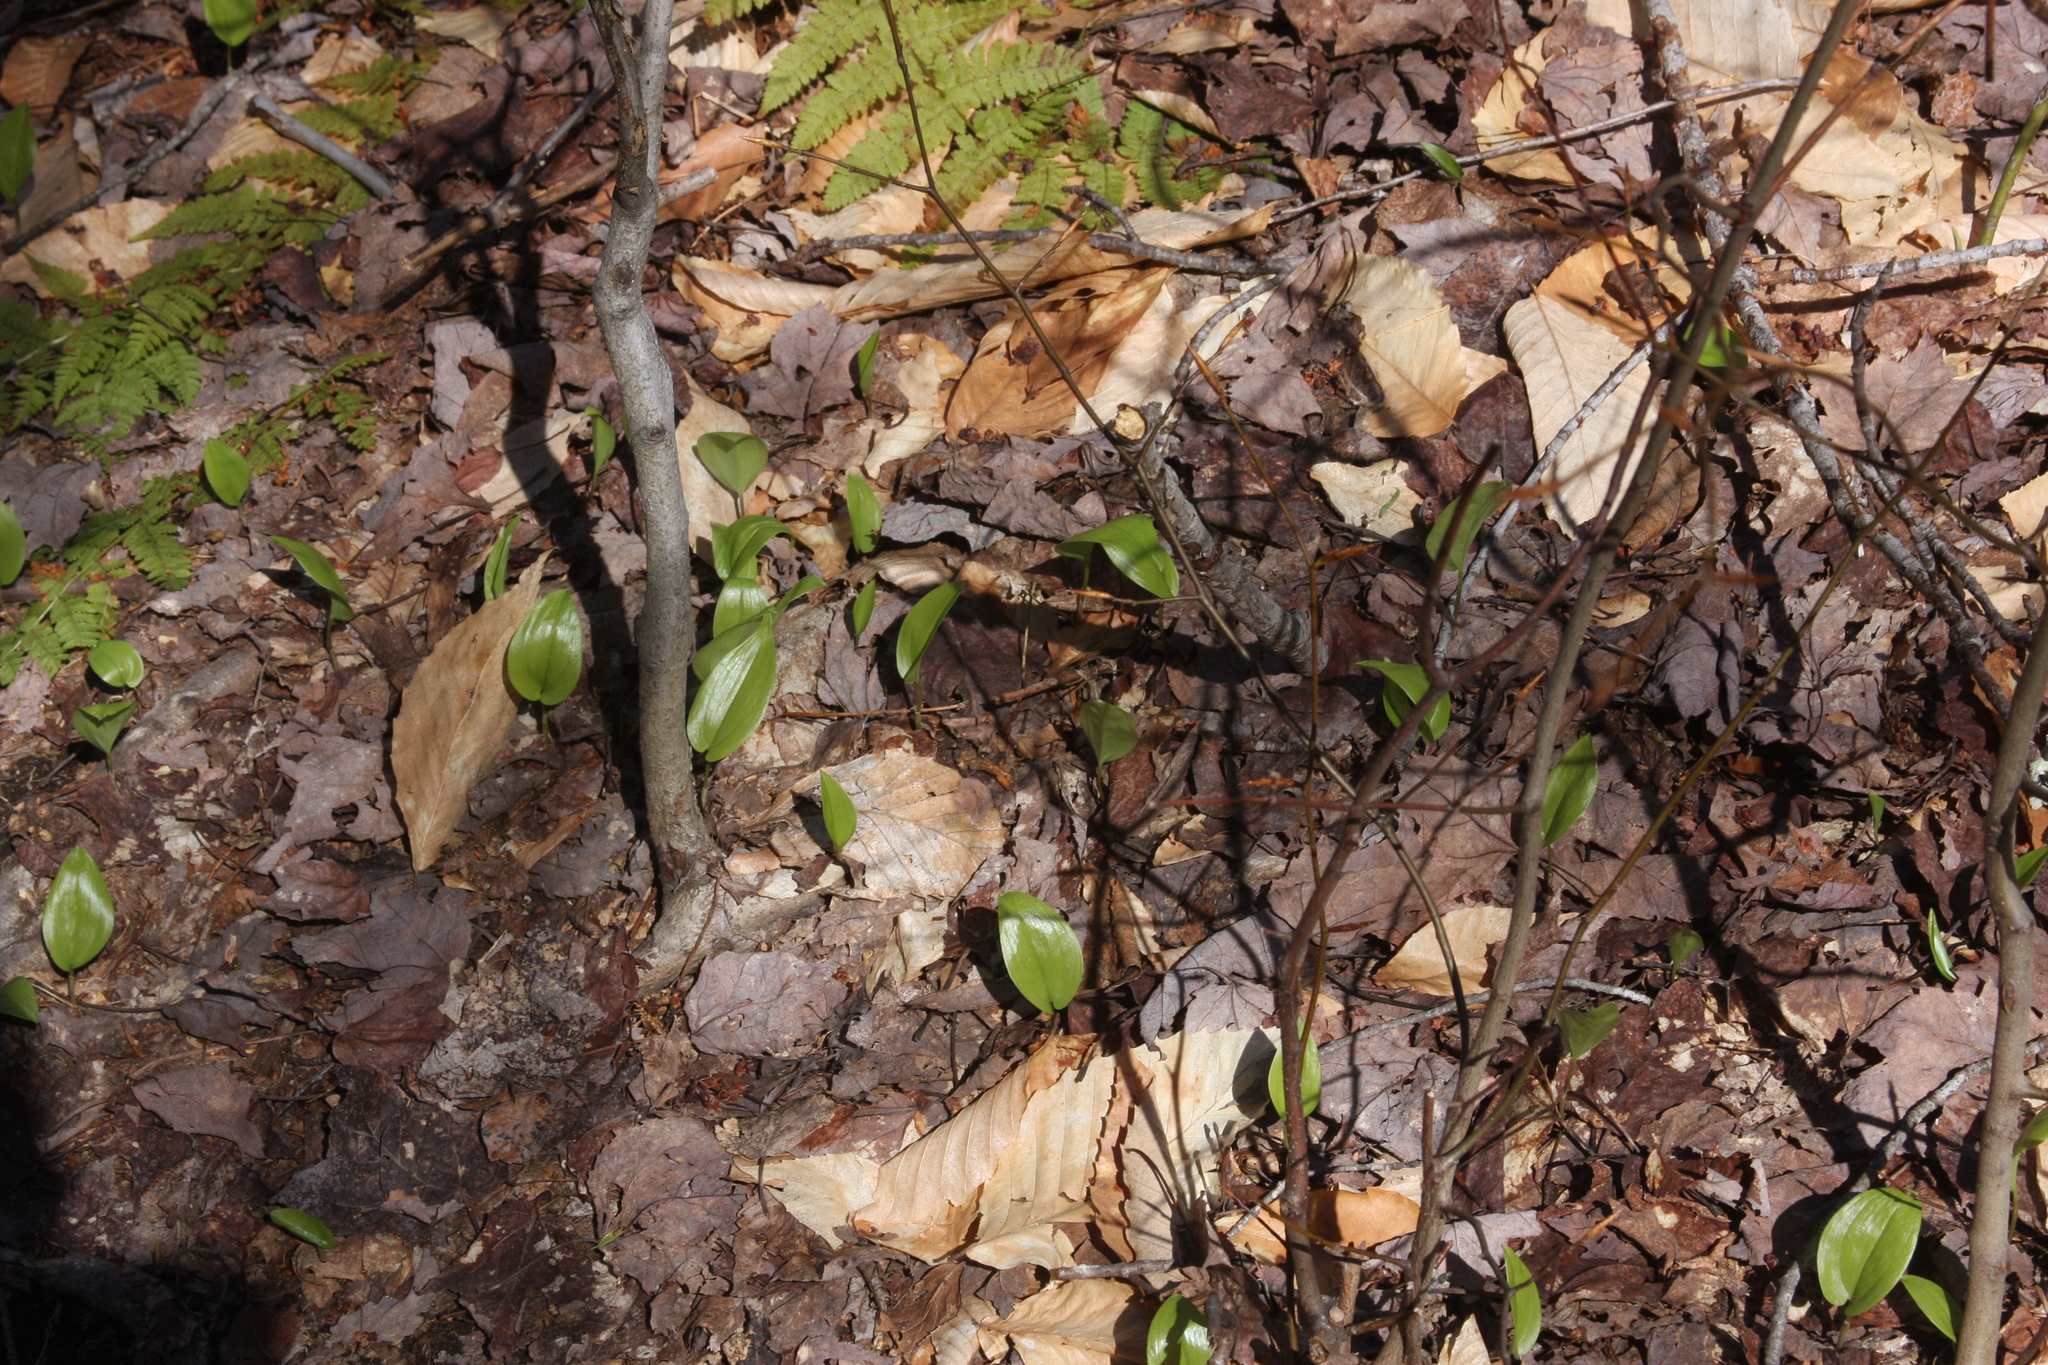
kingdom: Plantae
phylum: Tracheophyta
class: Liliopsida
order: Asparagales
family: Asparagaceae
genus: Maianthemum
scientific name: Maianthemum canadense
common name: False lily-of-the-valley
